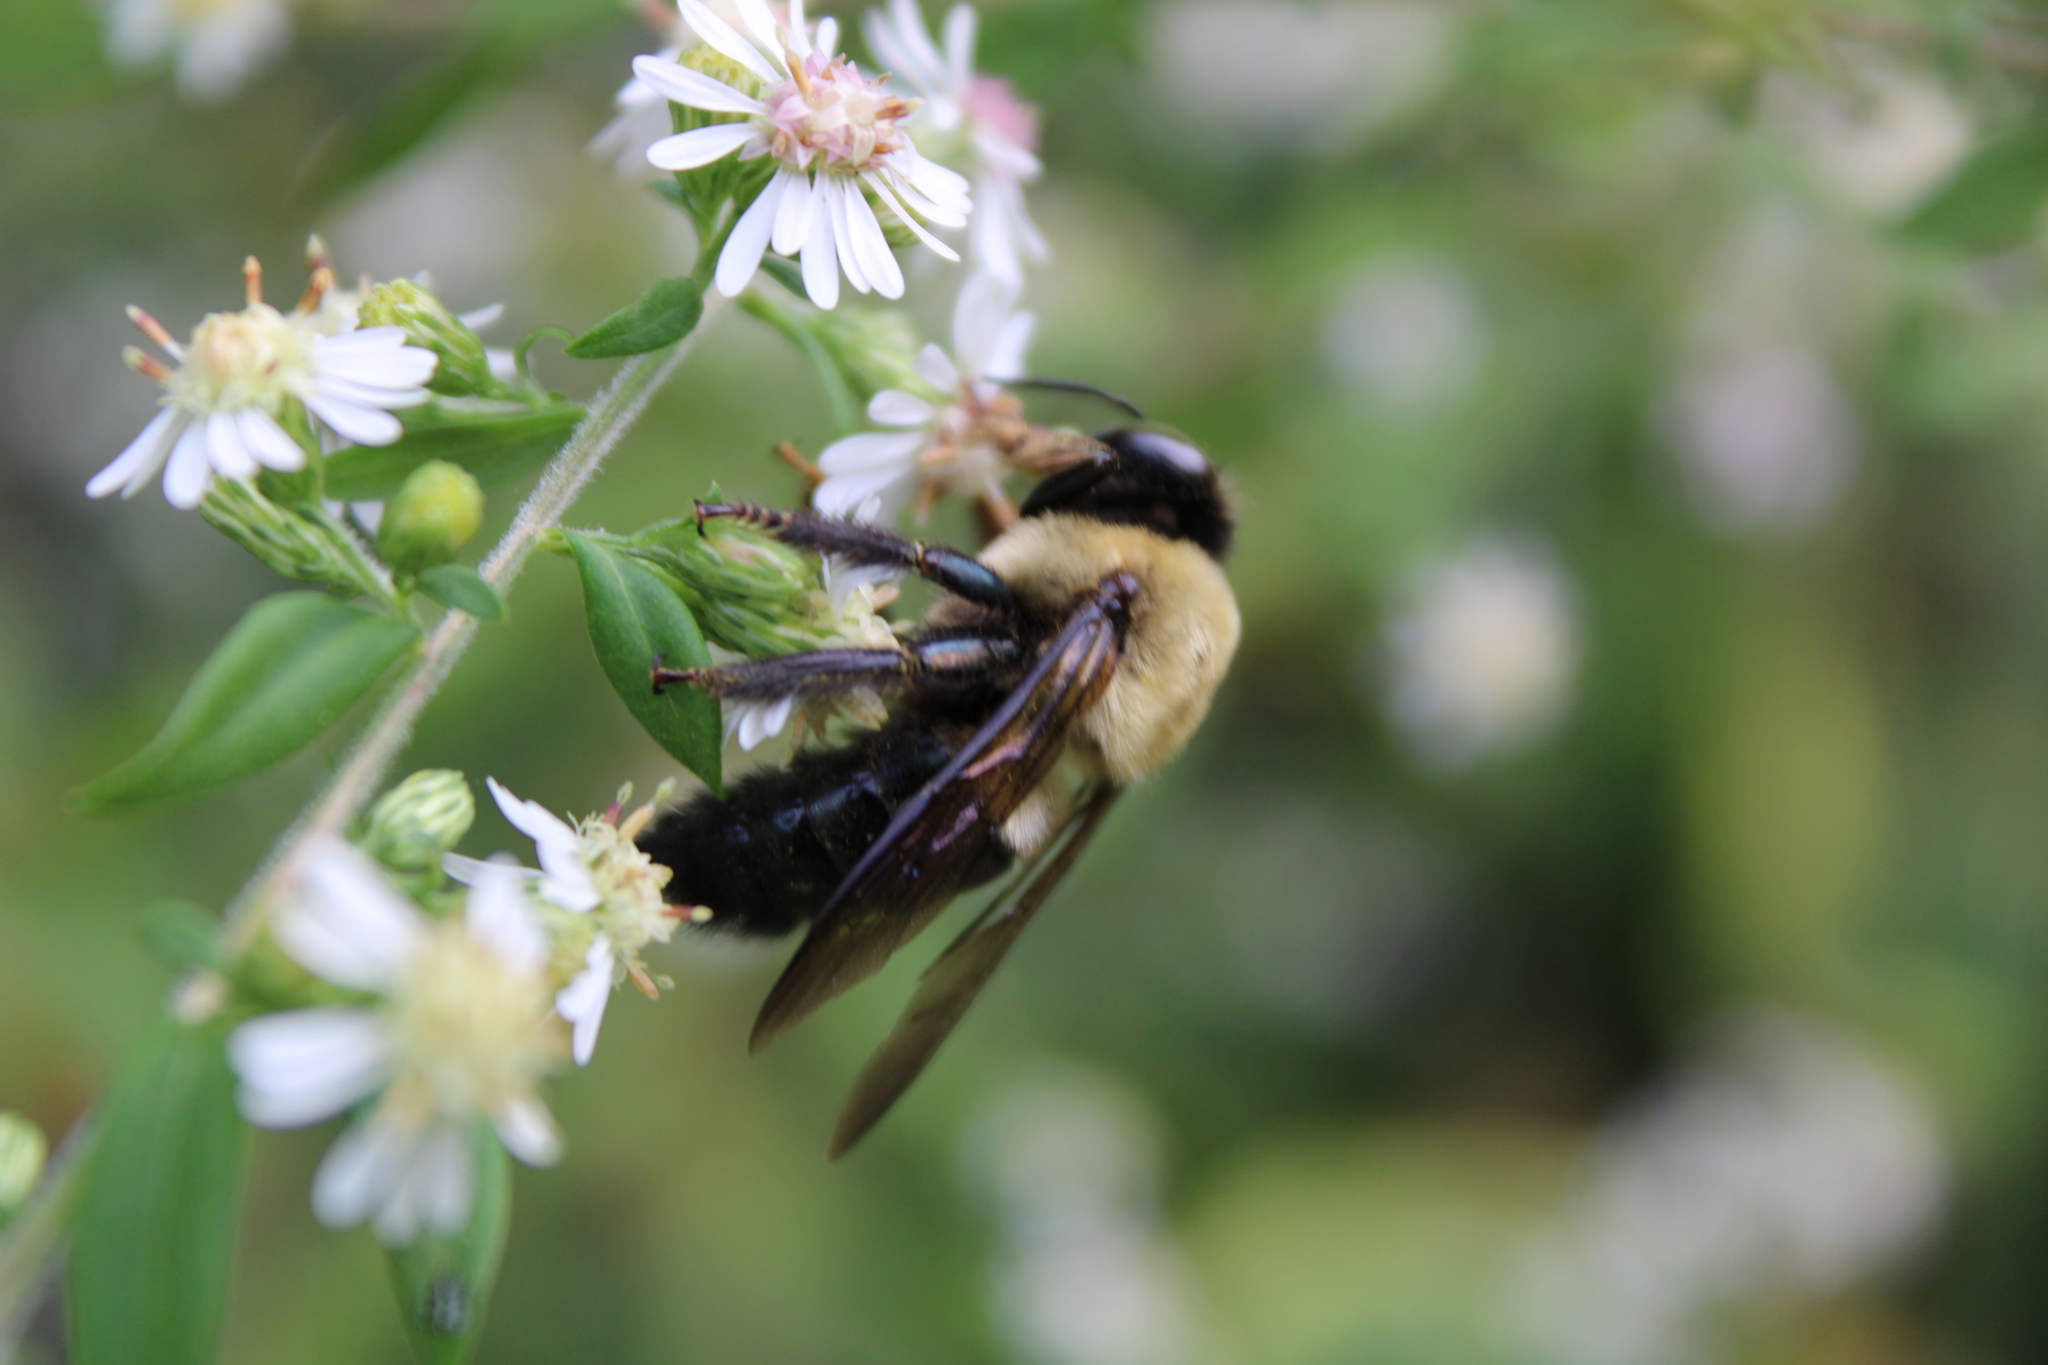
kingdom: Animalia
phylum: Arthropoda
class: Insecta
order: Hymenoptera
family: Apidae
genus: Xylocopa
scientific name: Xylocopa virginica
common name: Carpenter bee
